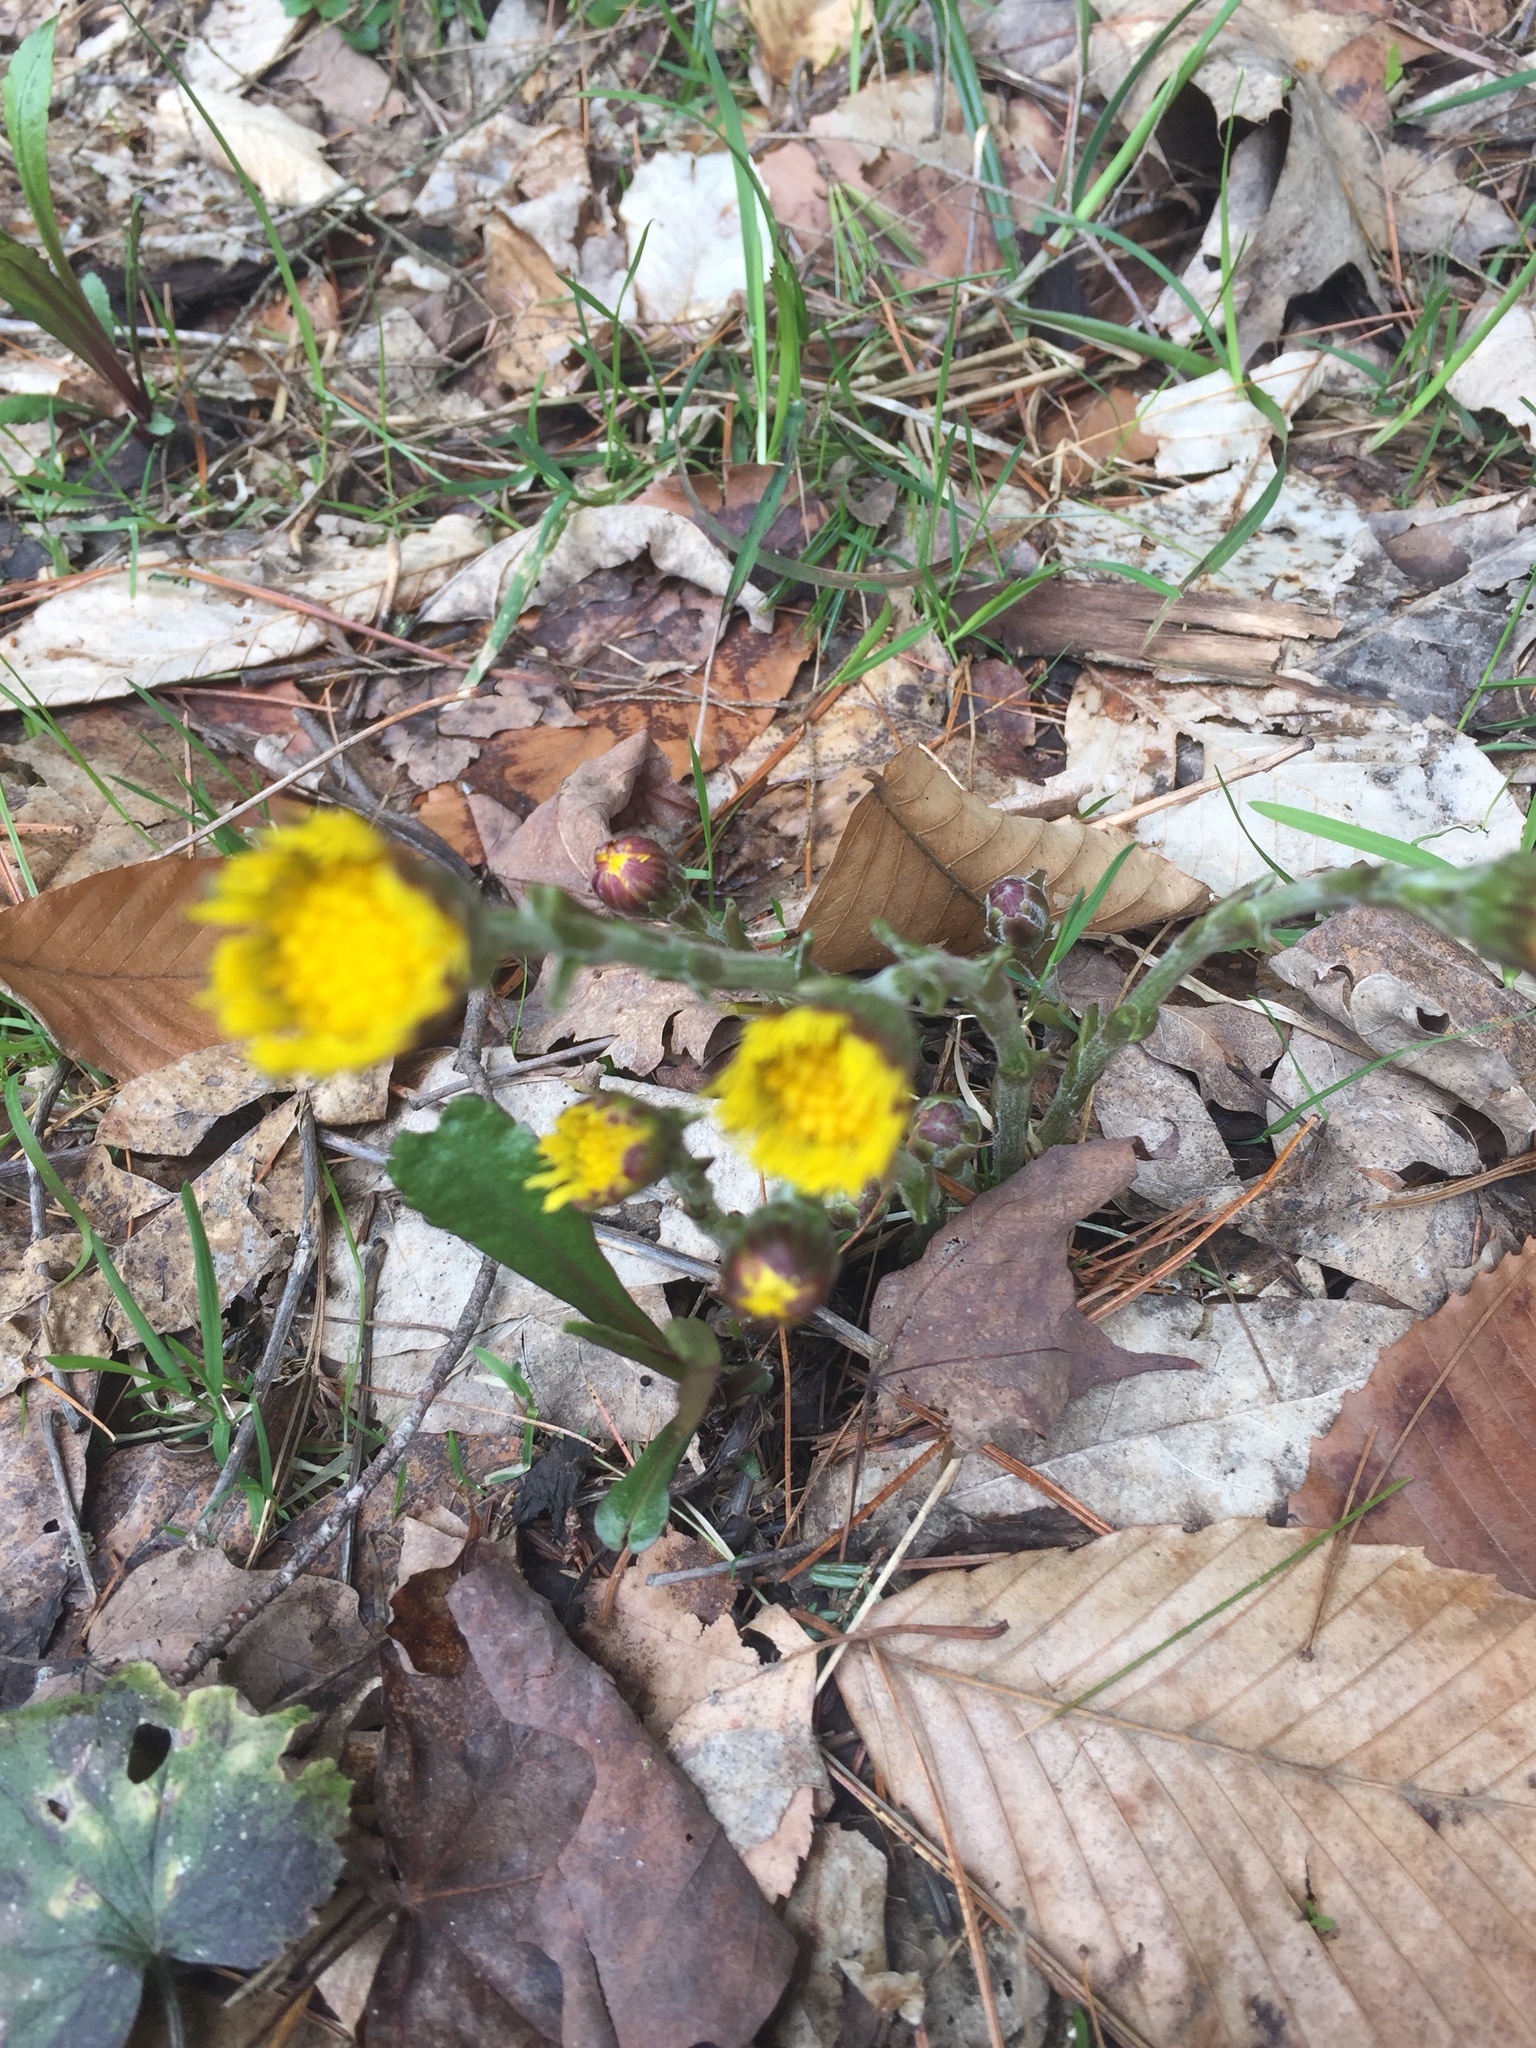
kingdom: Plantae
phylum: Tracheophyta
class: Magnoliopsida
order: Asterales
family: Asteraceae
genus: Tussilago
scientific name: Tussilago farfara
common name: Coltsfoot
